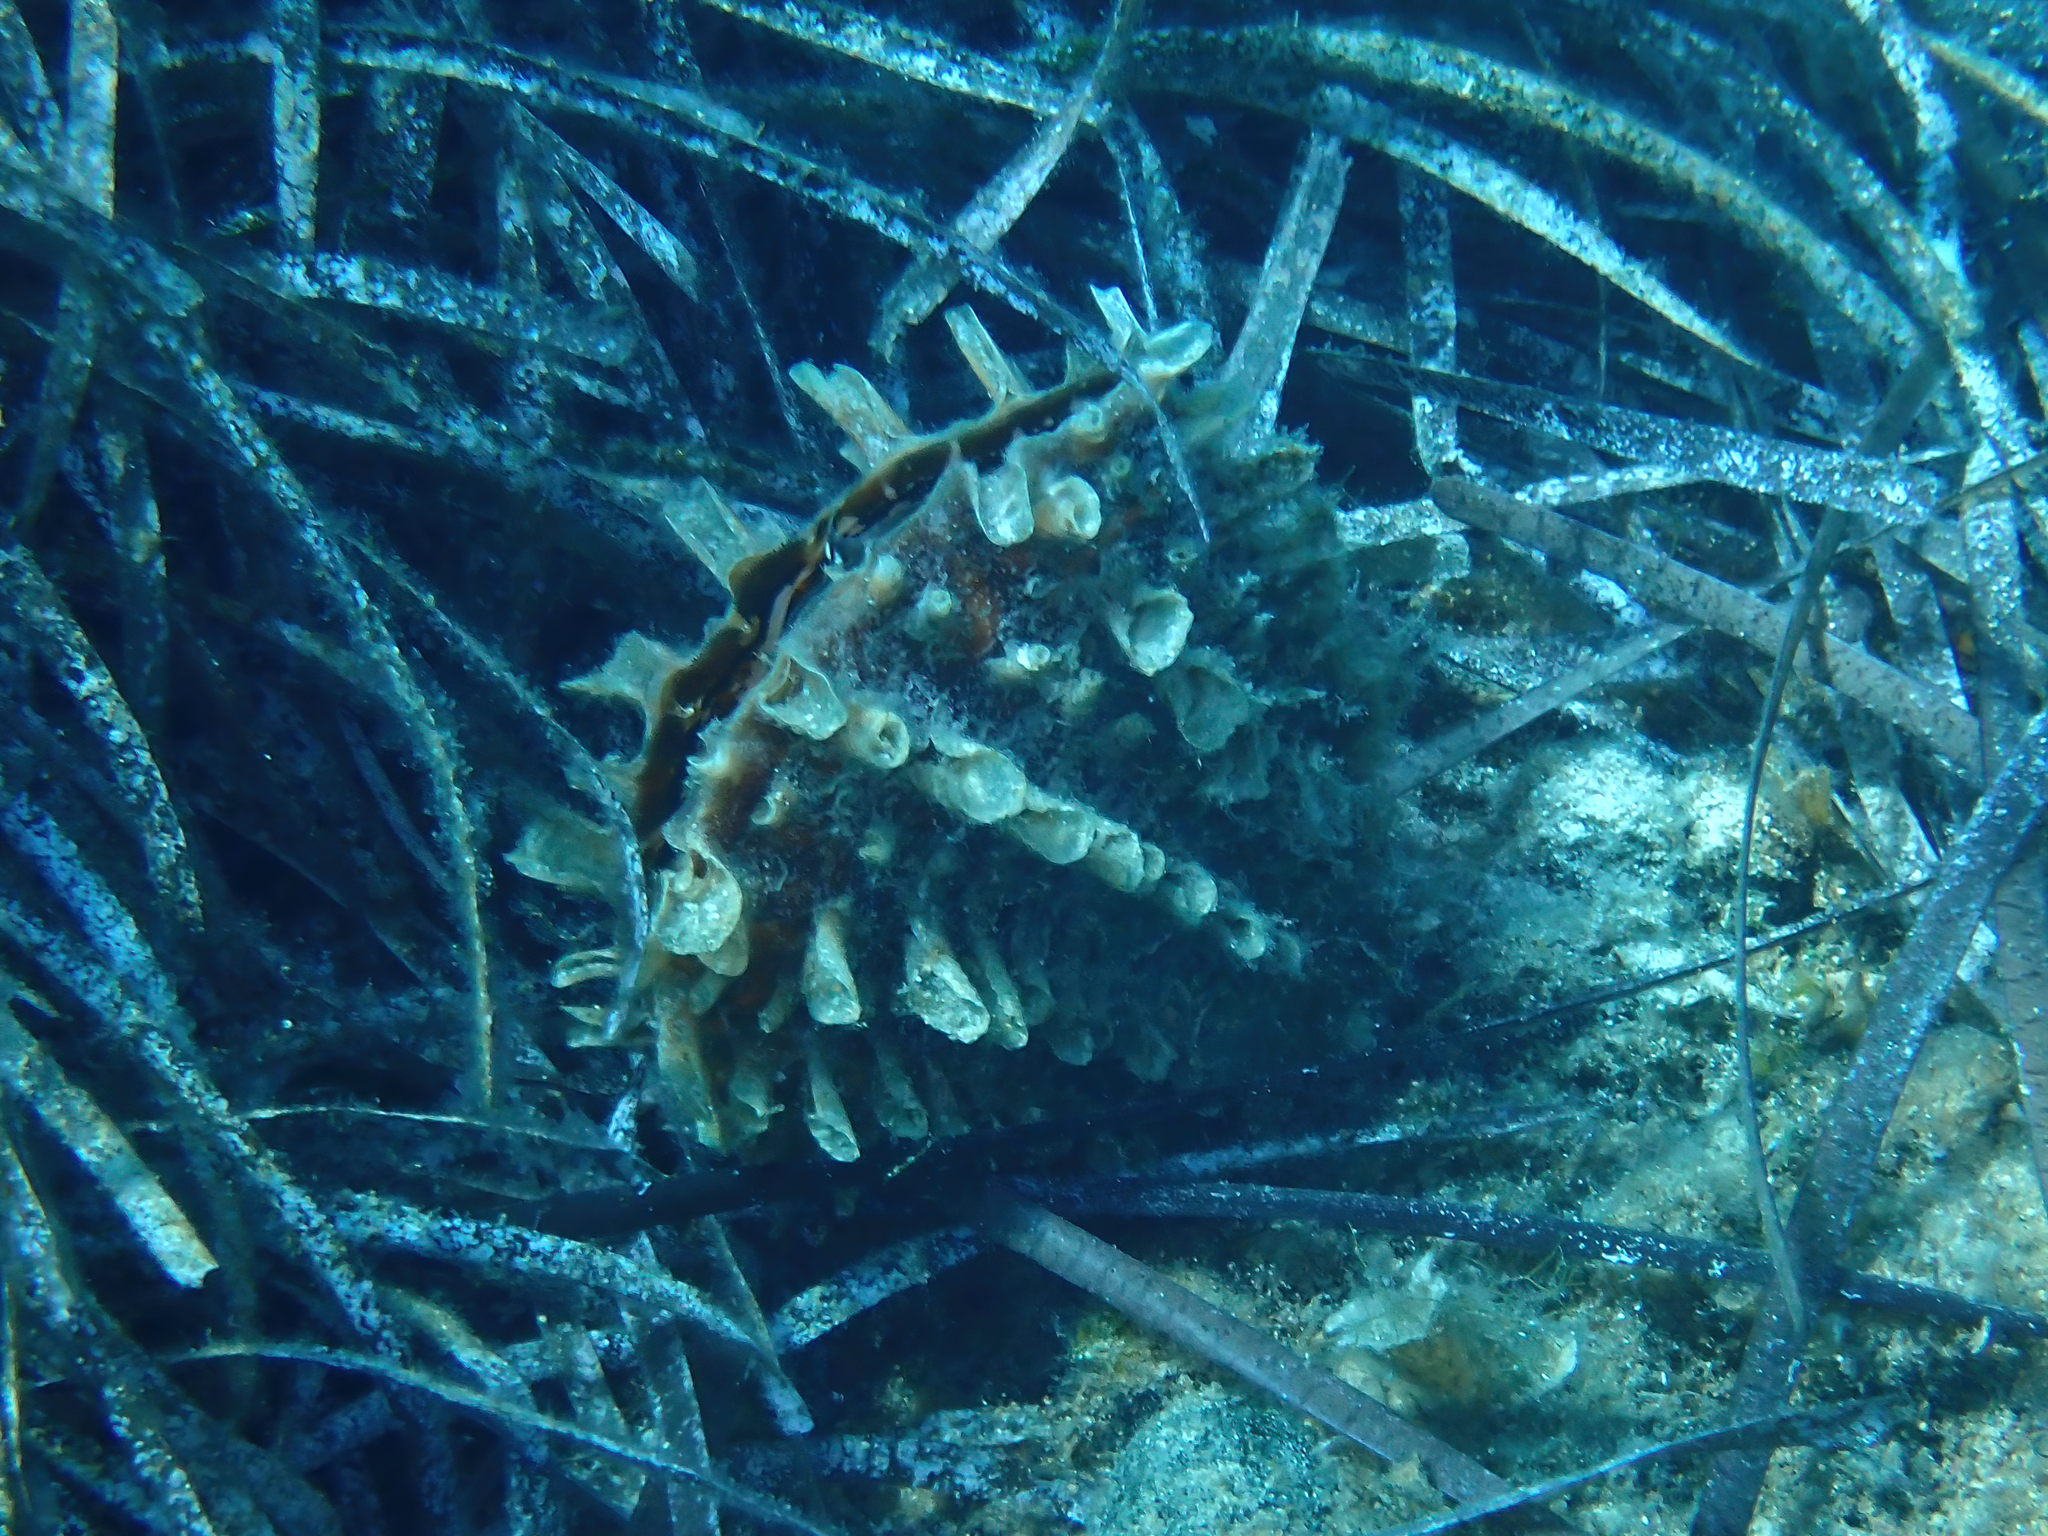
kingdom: Animalia
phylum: Mollusca
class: Bivalvia
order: Ostreida
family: Pinnidae
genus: Pinna
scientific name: Pinna rudis
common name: Rough penshell
